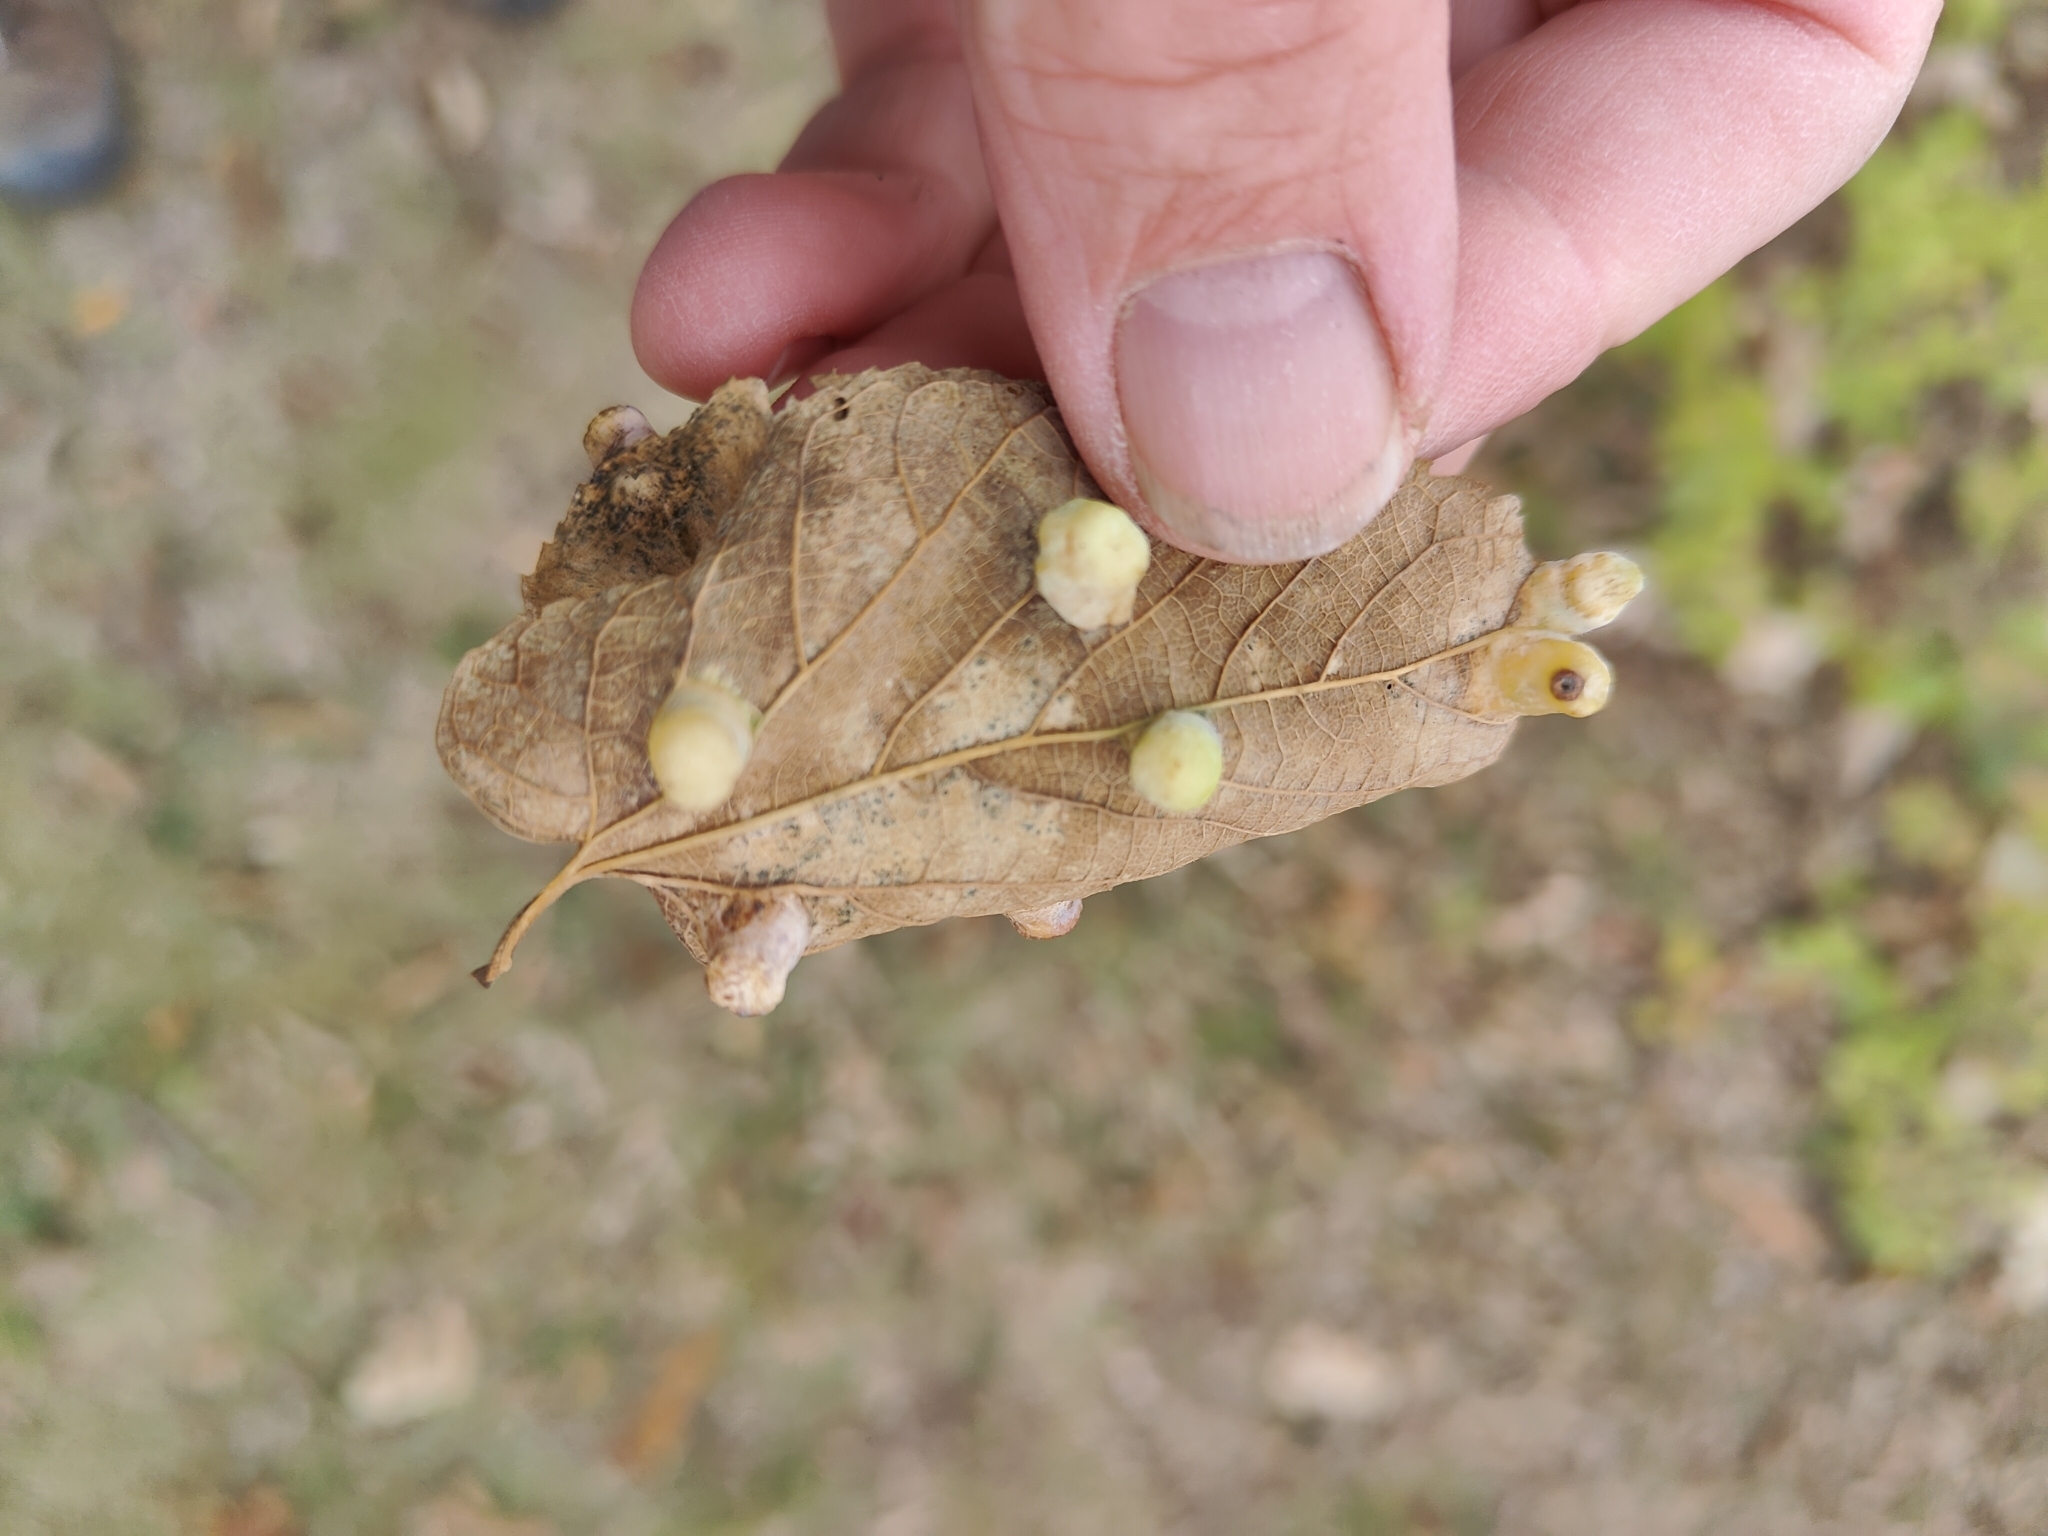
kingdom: Animalia
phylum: Arthropoda
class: Insecta
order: Hemiptera
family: Aphalaridae
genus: Pachypsylla
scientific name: Pachypsylla celtidismamma
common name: Hackberry nipplegall psyllid
